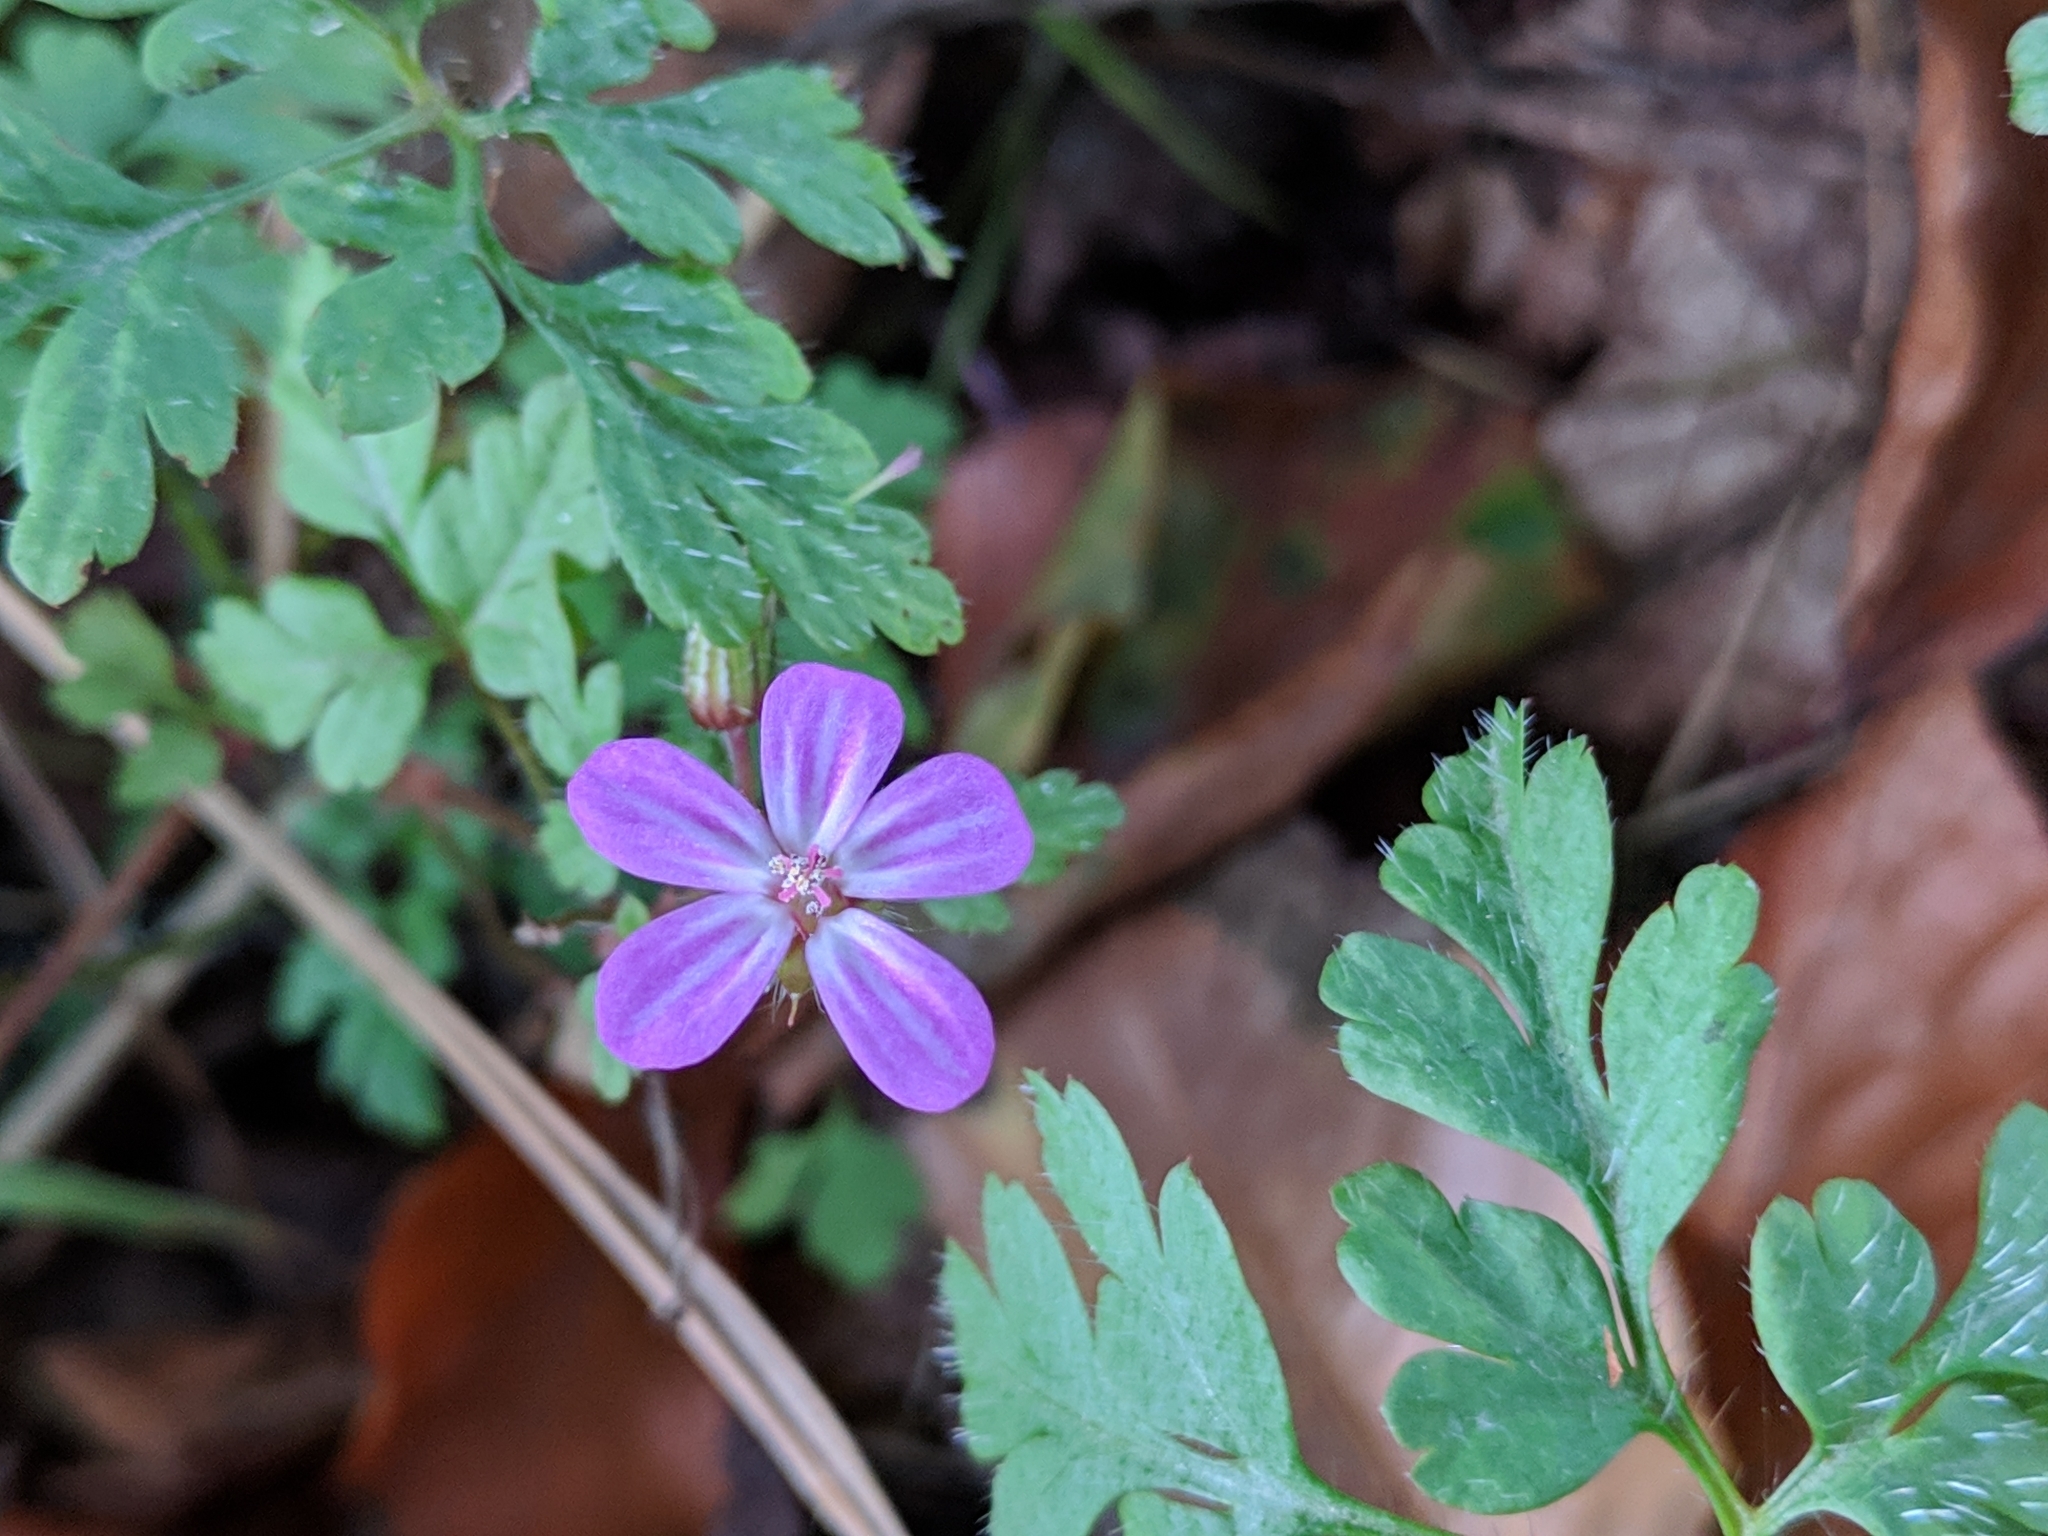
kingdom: Plantae
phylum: Tracheophyta
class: Magnoliopsida
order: Geraniales
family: Geraniaceae
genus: Geranium
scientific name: Geranium robertianum
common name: Herb-robert
